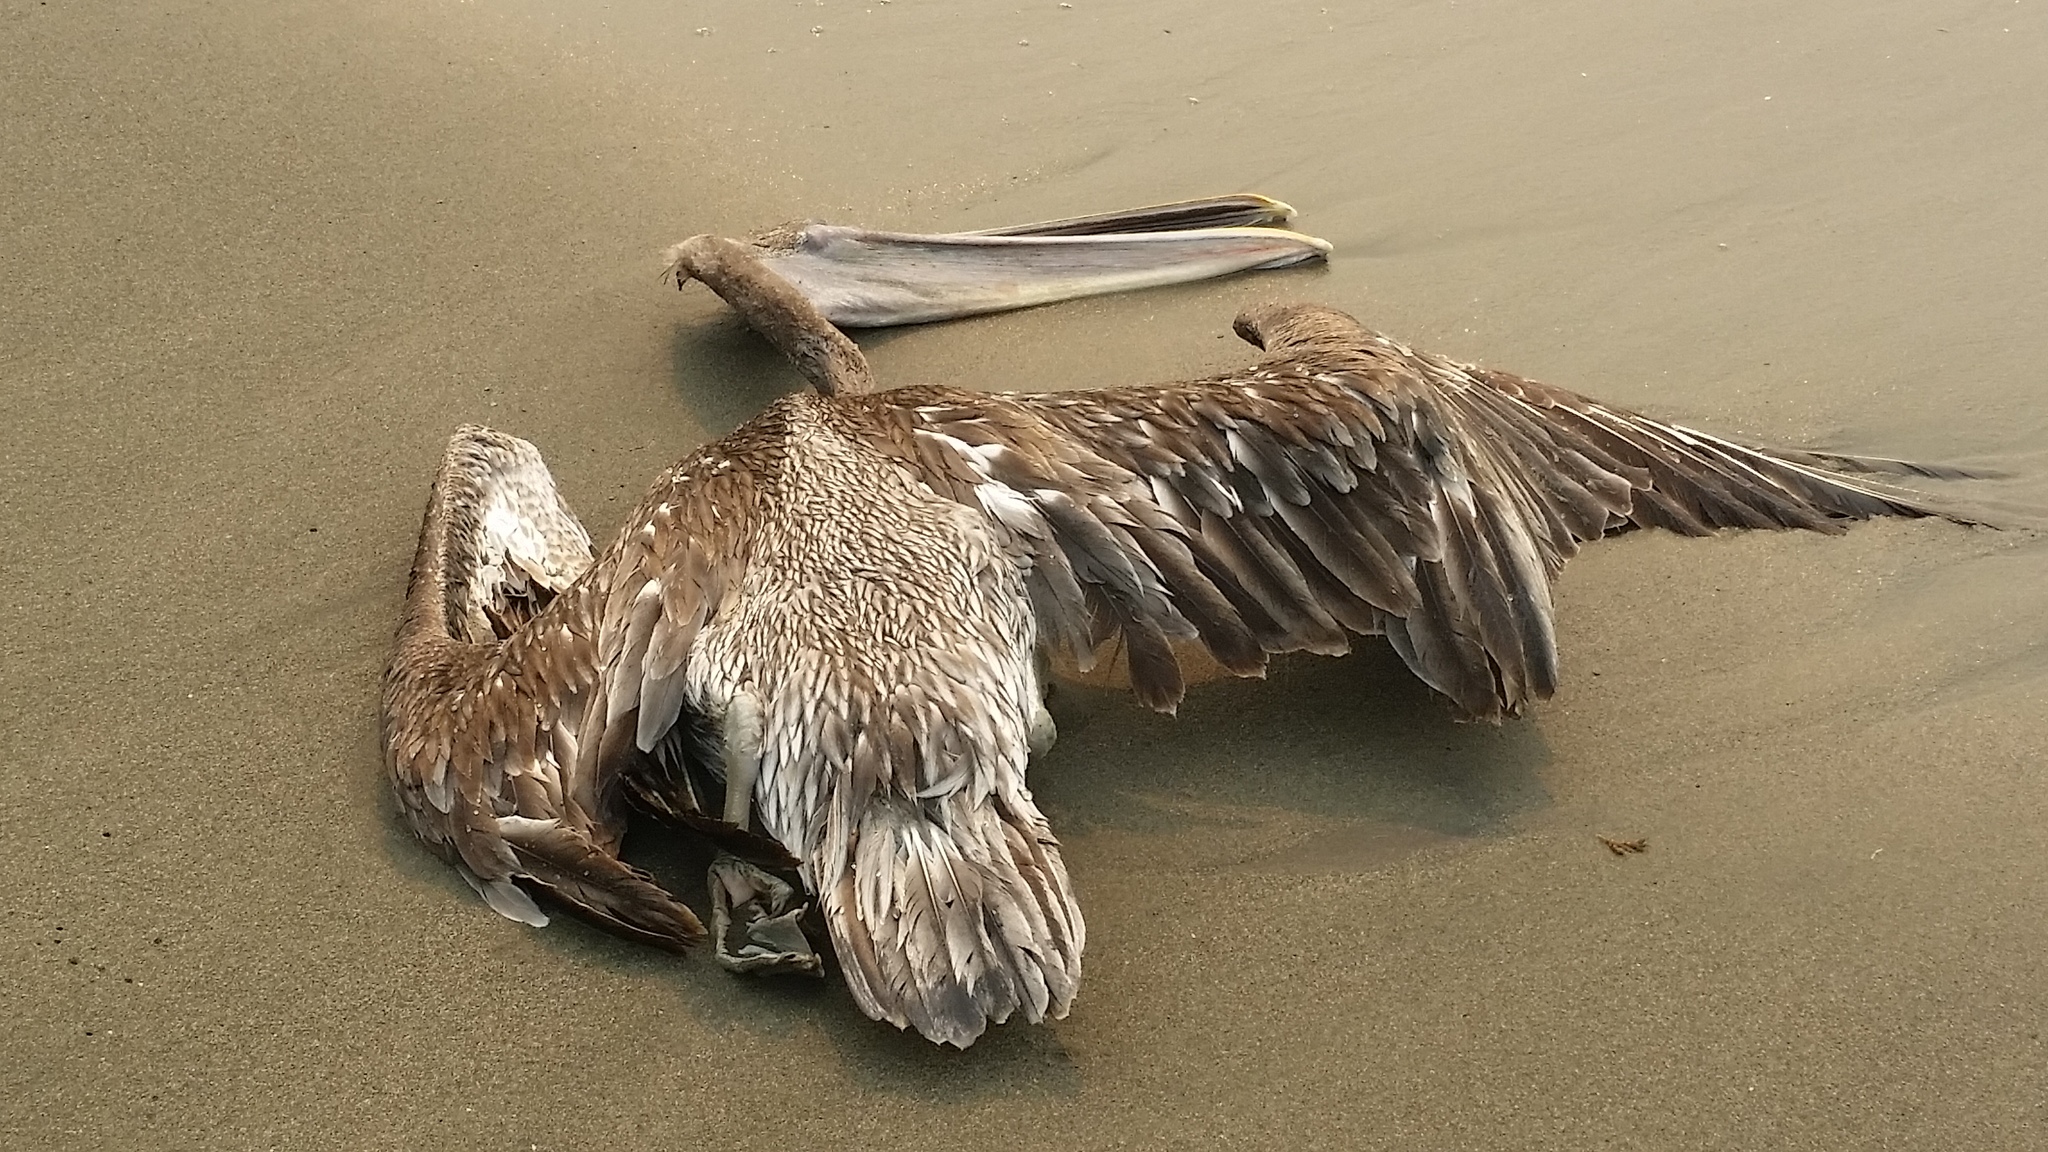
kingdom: Animalia
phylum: Chordata
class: Aves
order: Pelecaniformes
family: Pelecanidae
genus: Pelecanus
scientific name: Pelecanus occidentalis
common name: Brown pelican
